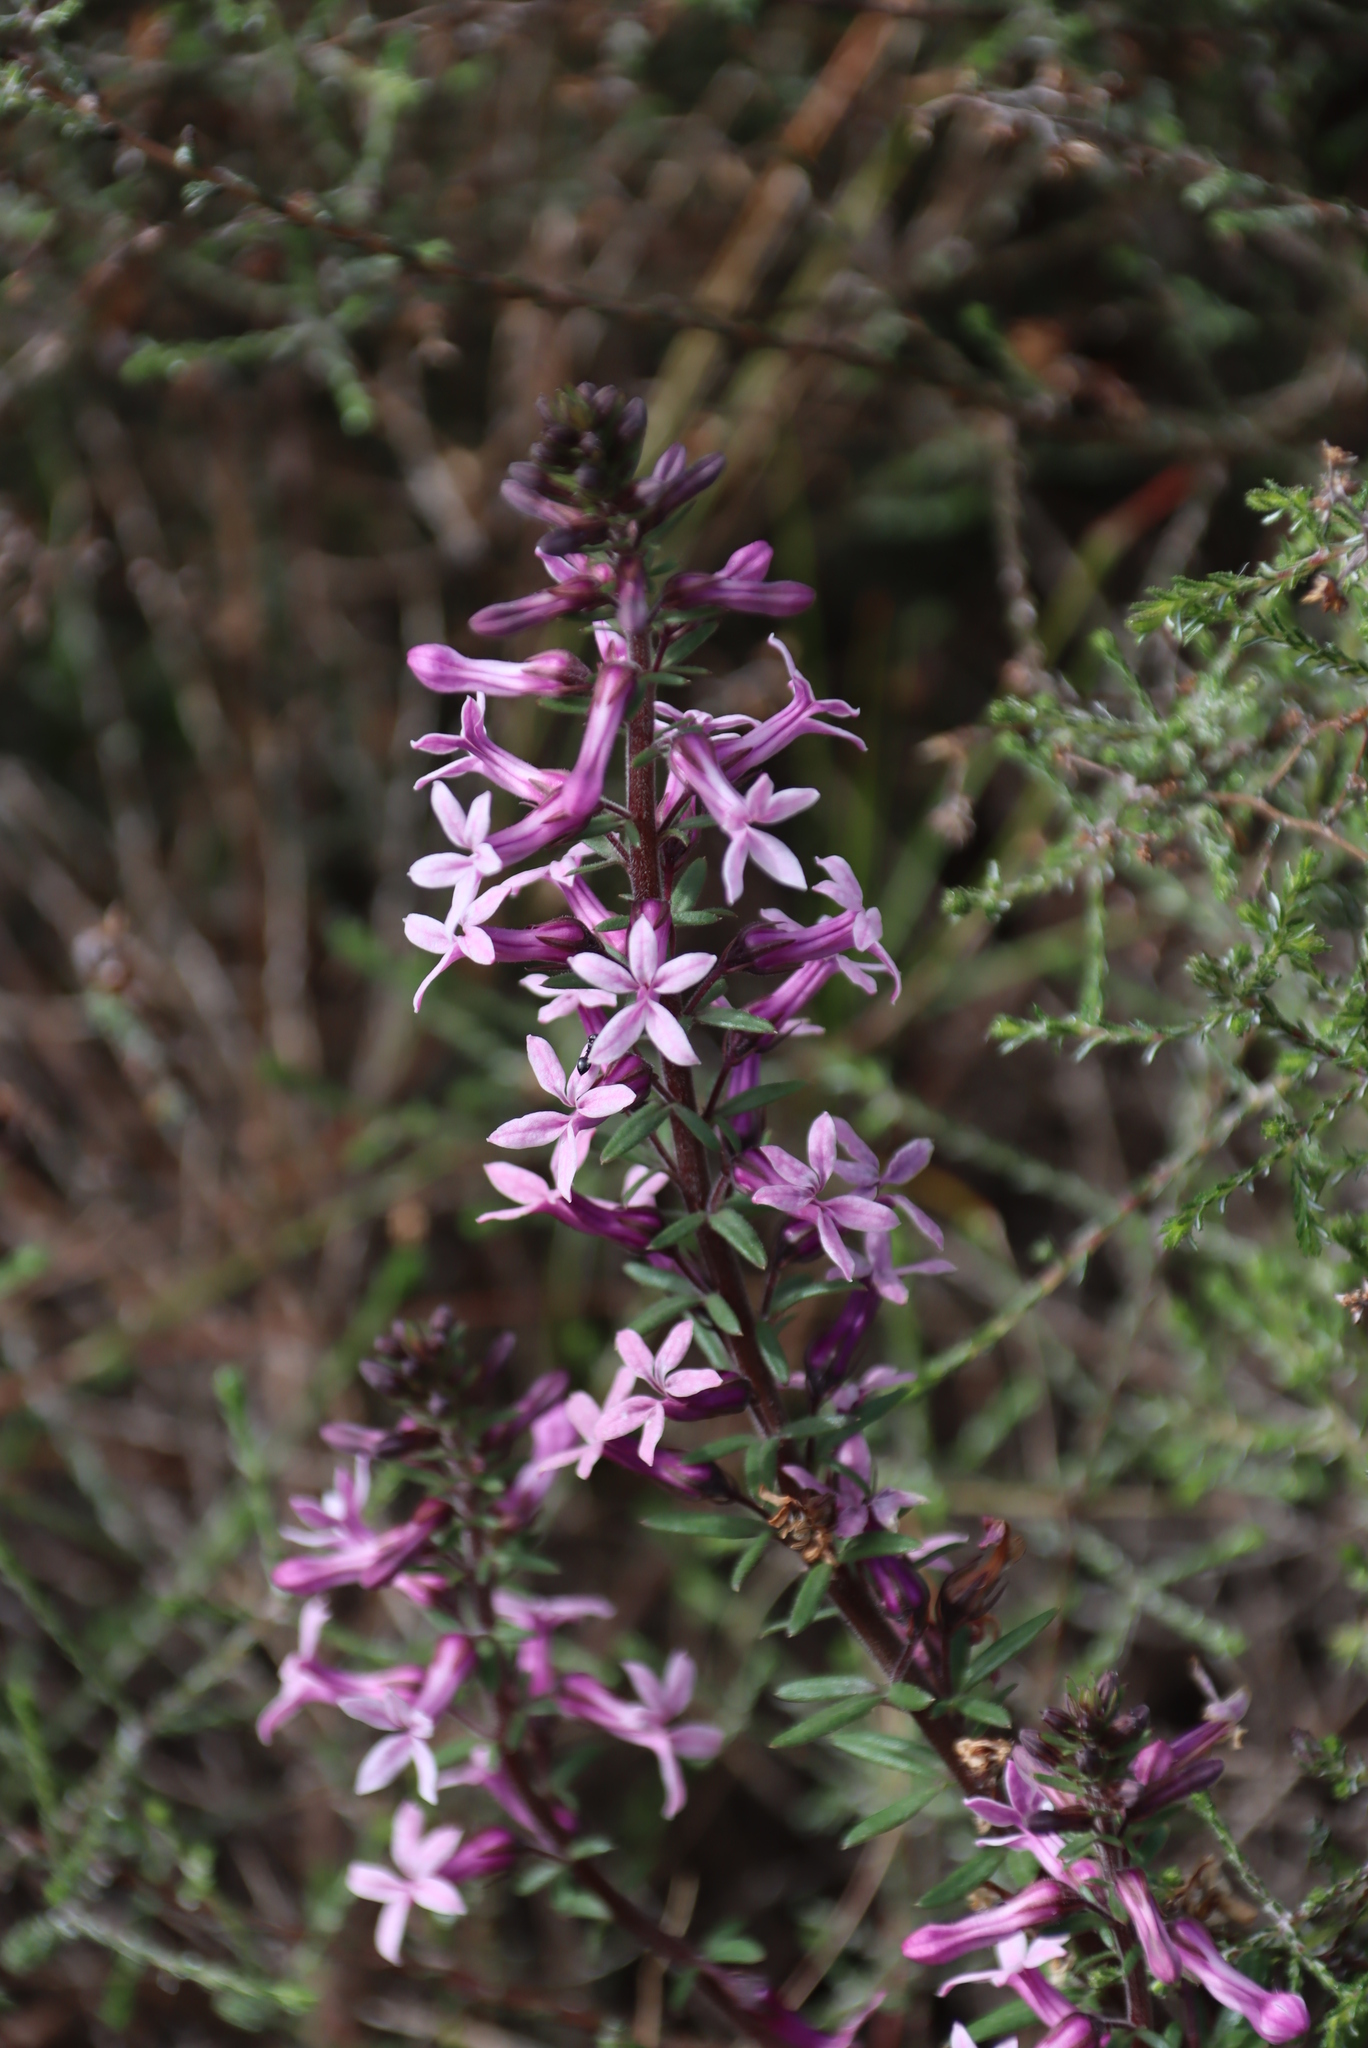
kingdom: Plantae
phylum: Tracheophyta
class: Magnoliopsida
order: Asterales
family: Campanulaceae
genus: Cyphia
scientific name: Cyphia bulbosa
